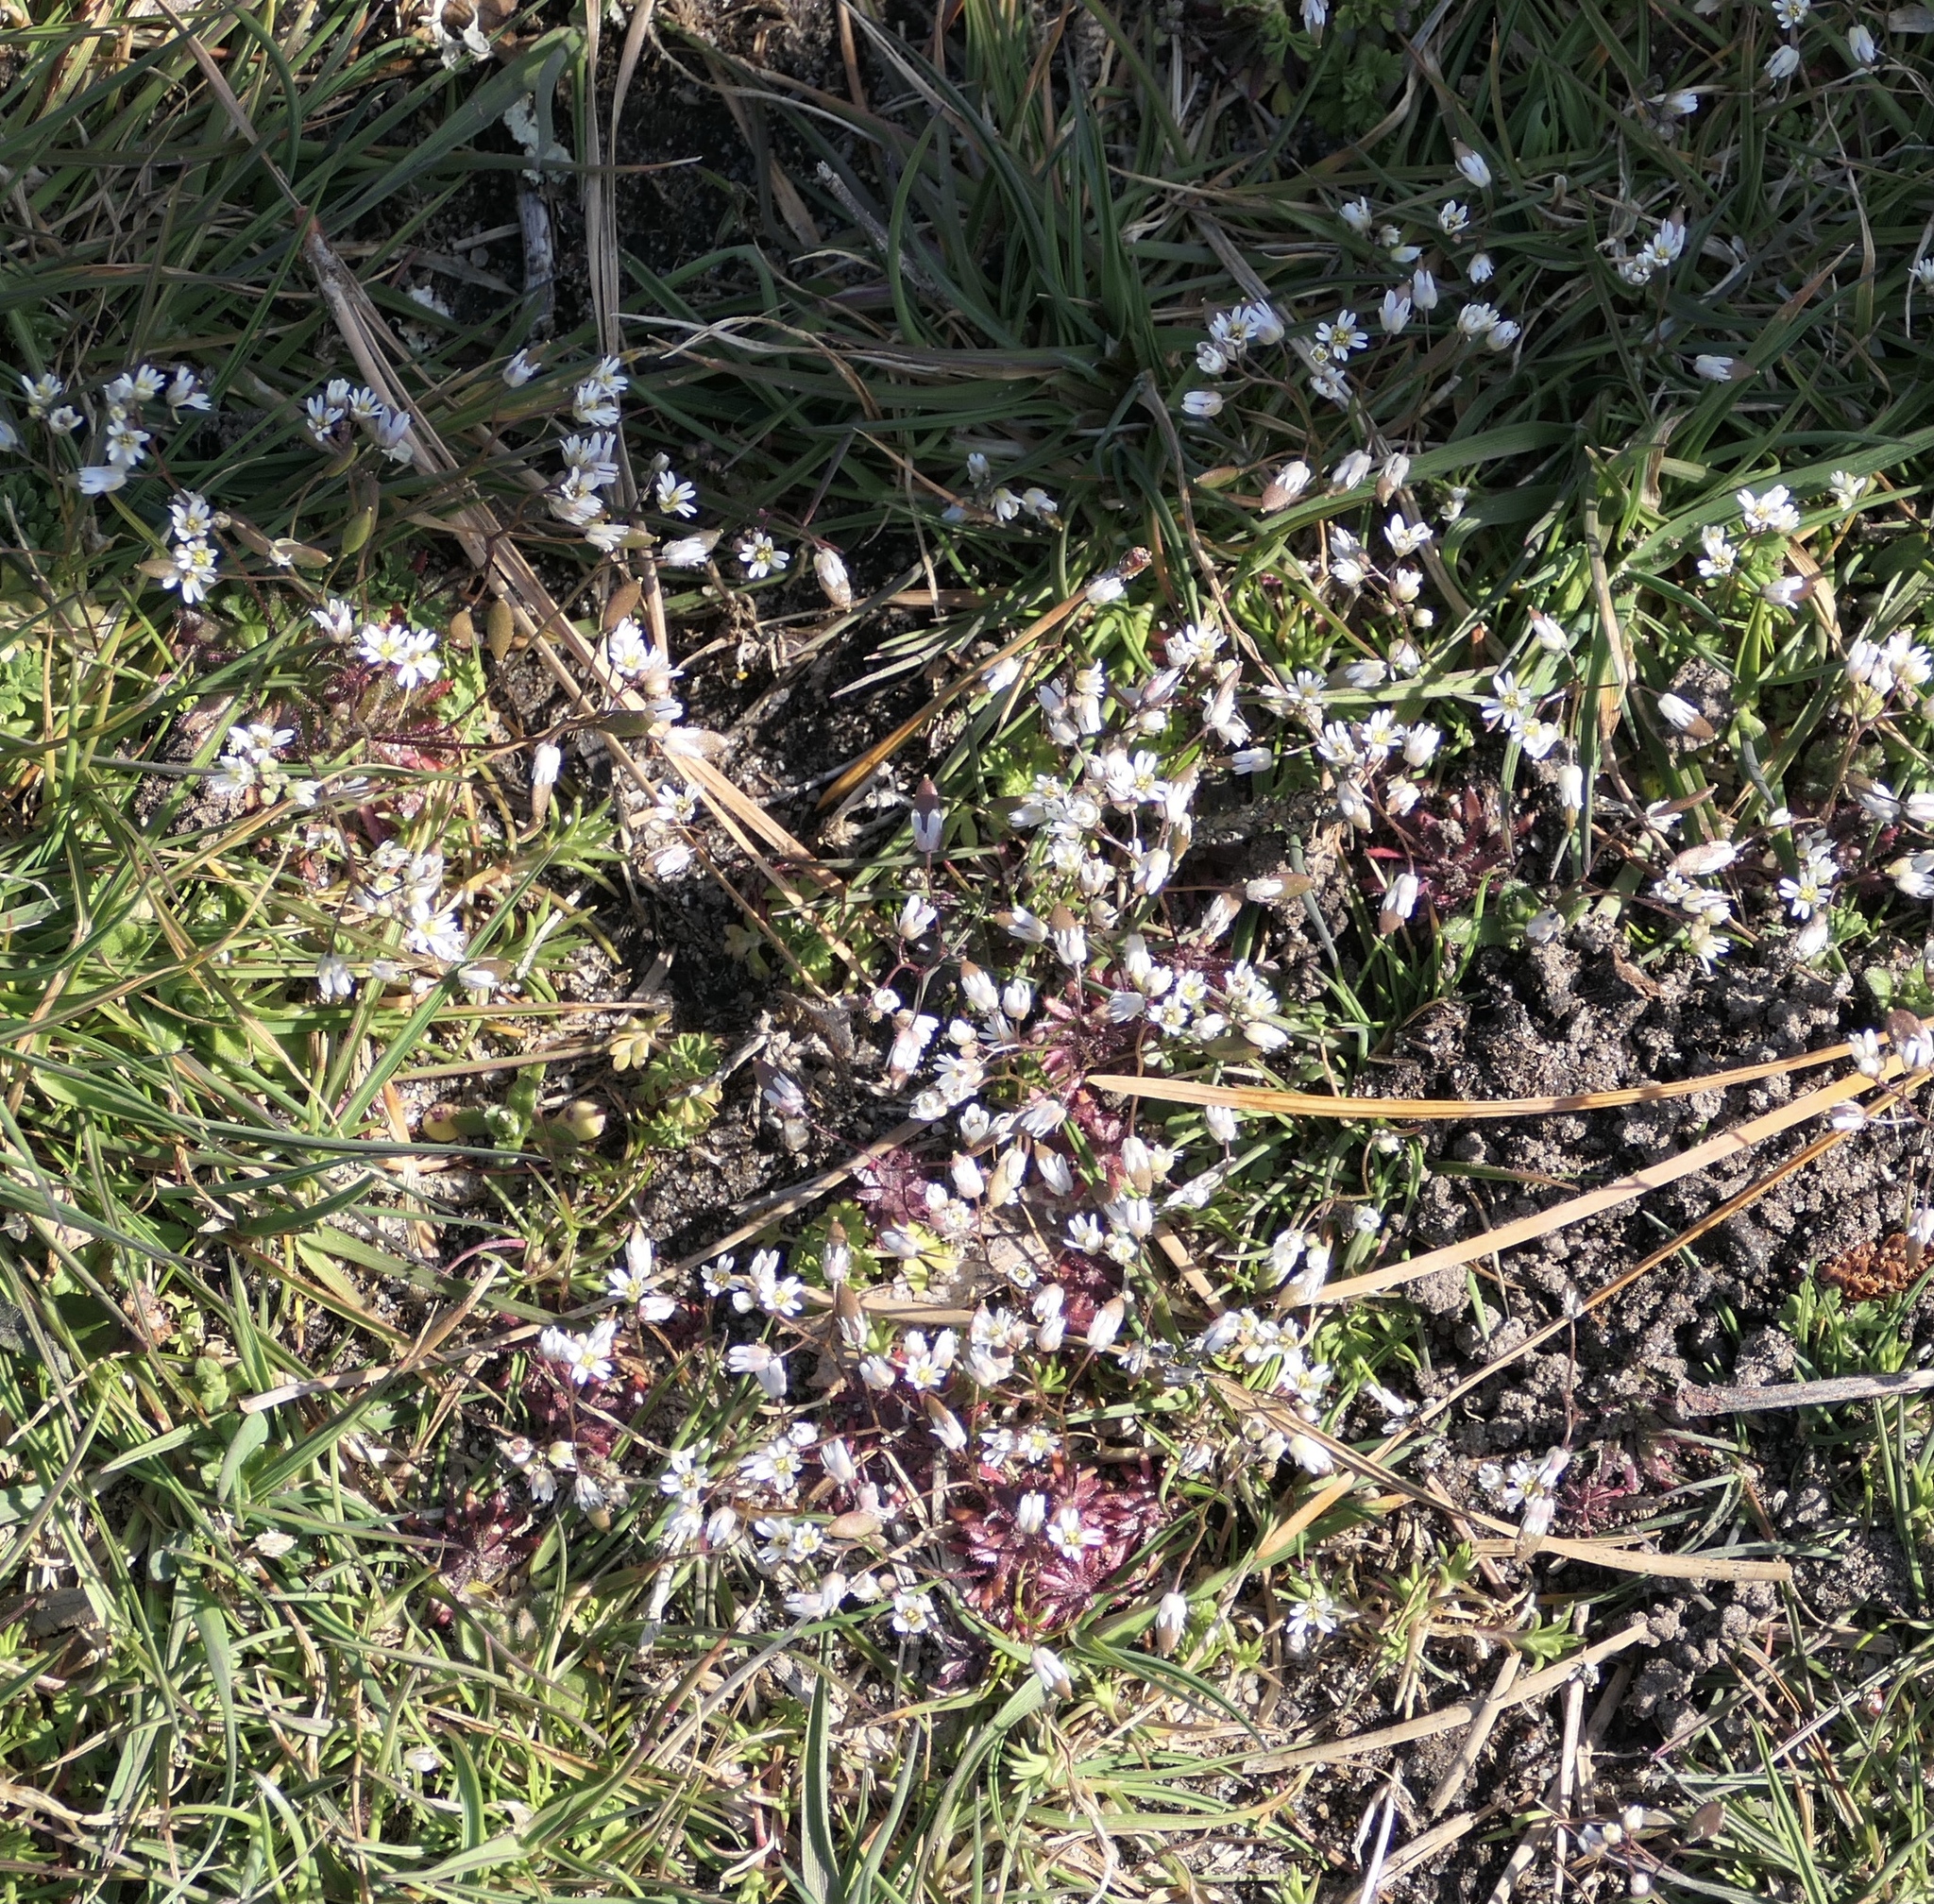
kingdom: Plantae
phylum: Tracheophyta
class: Magnoliopsida
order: Brassicales
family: Brassicaceae
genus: Draba
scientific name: Draba verna
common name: Spring draba
